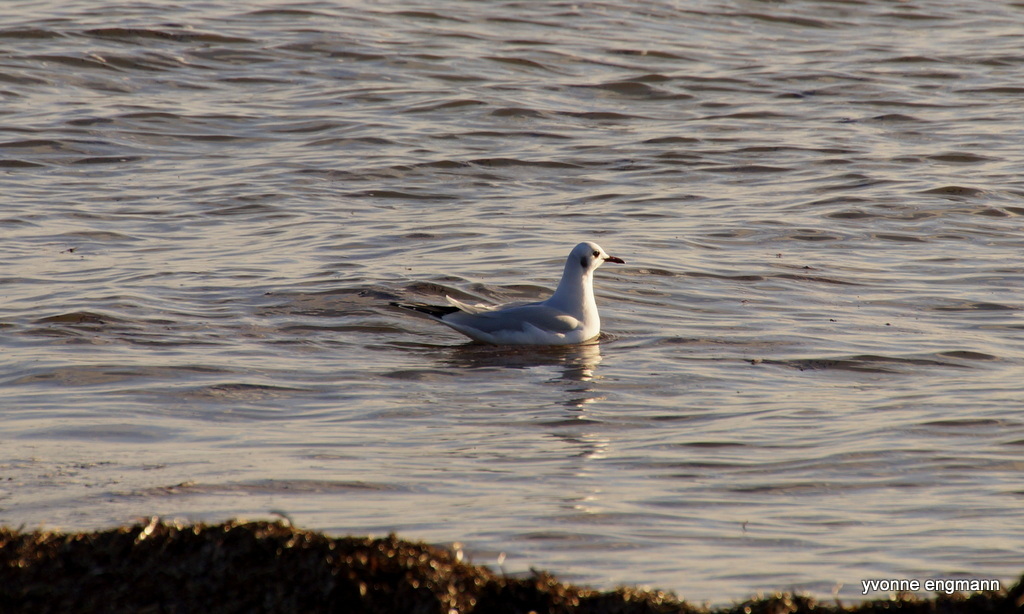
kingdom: Animalia
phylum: Chordata
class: Aves
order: Charadriiformes
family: Laridae
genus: Chroicocephalus
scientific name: Chroicocephalus ridibundus
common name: Black-headed gull
